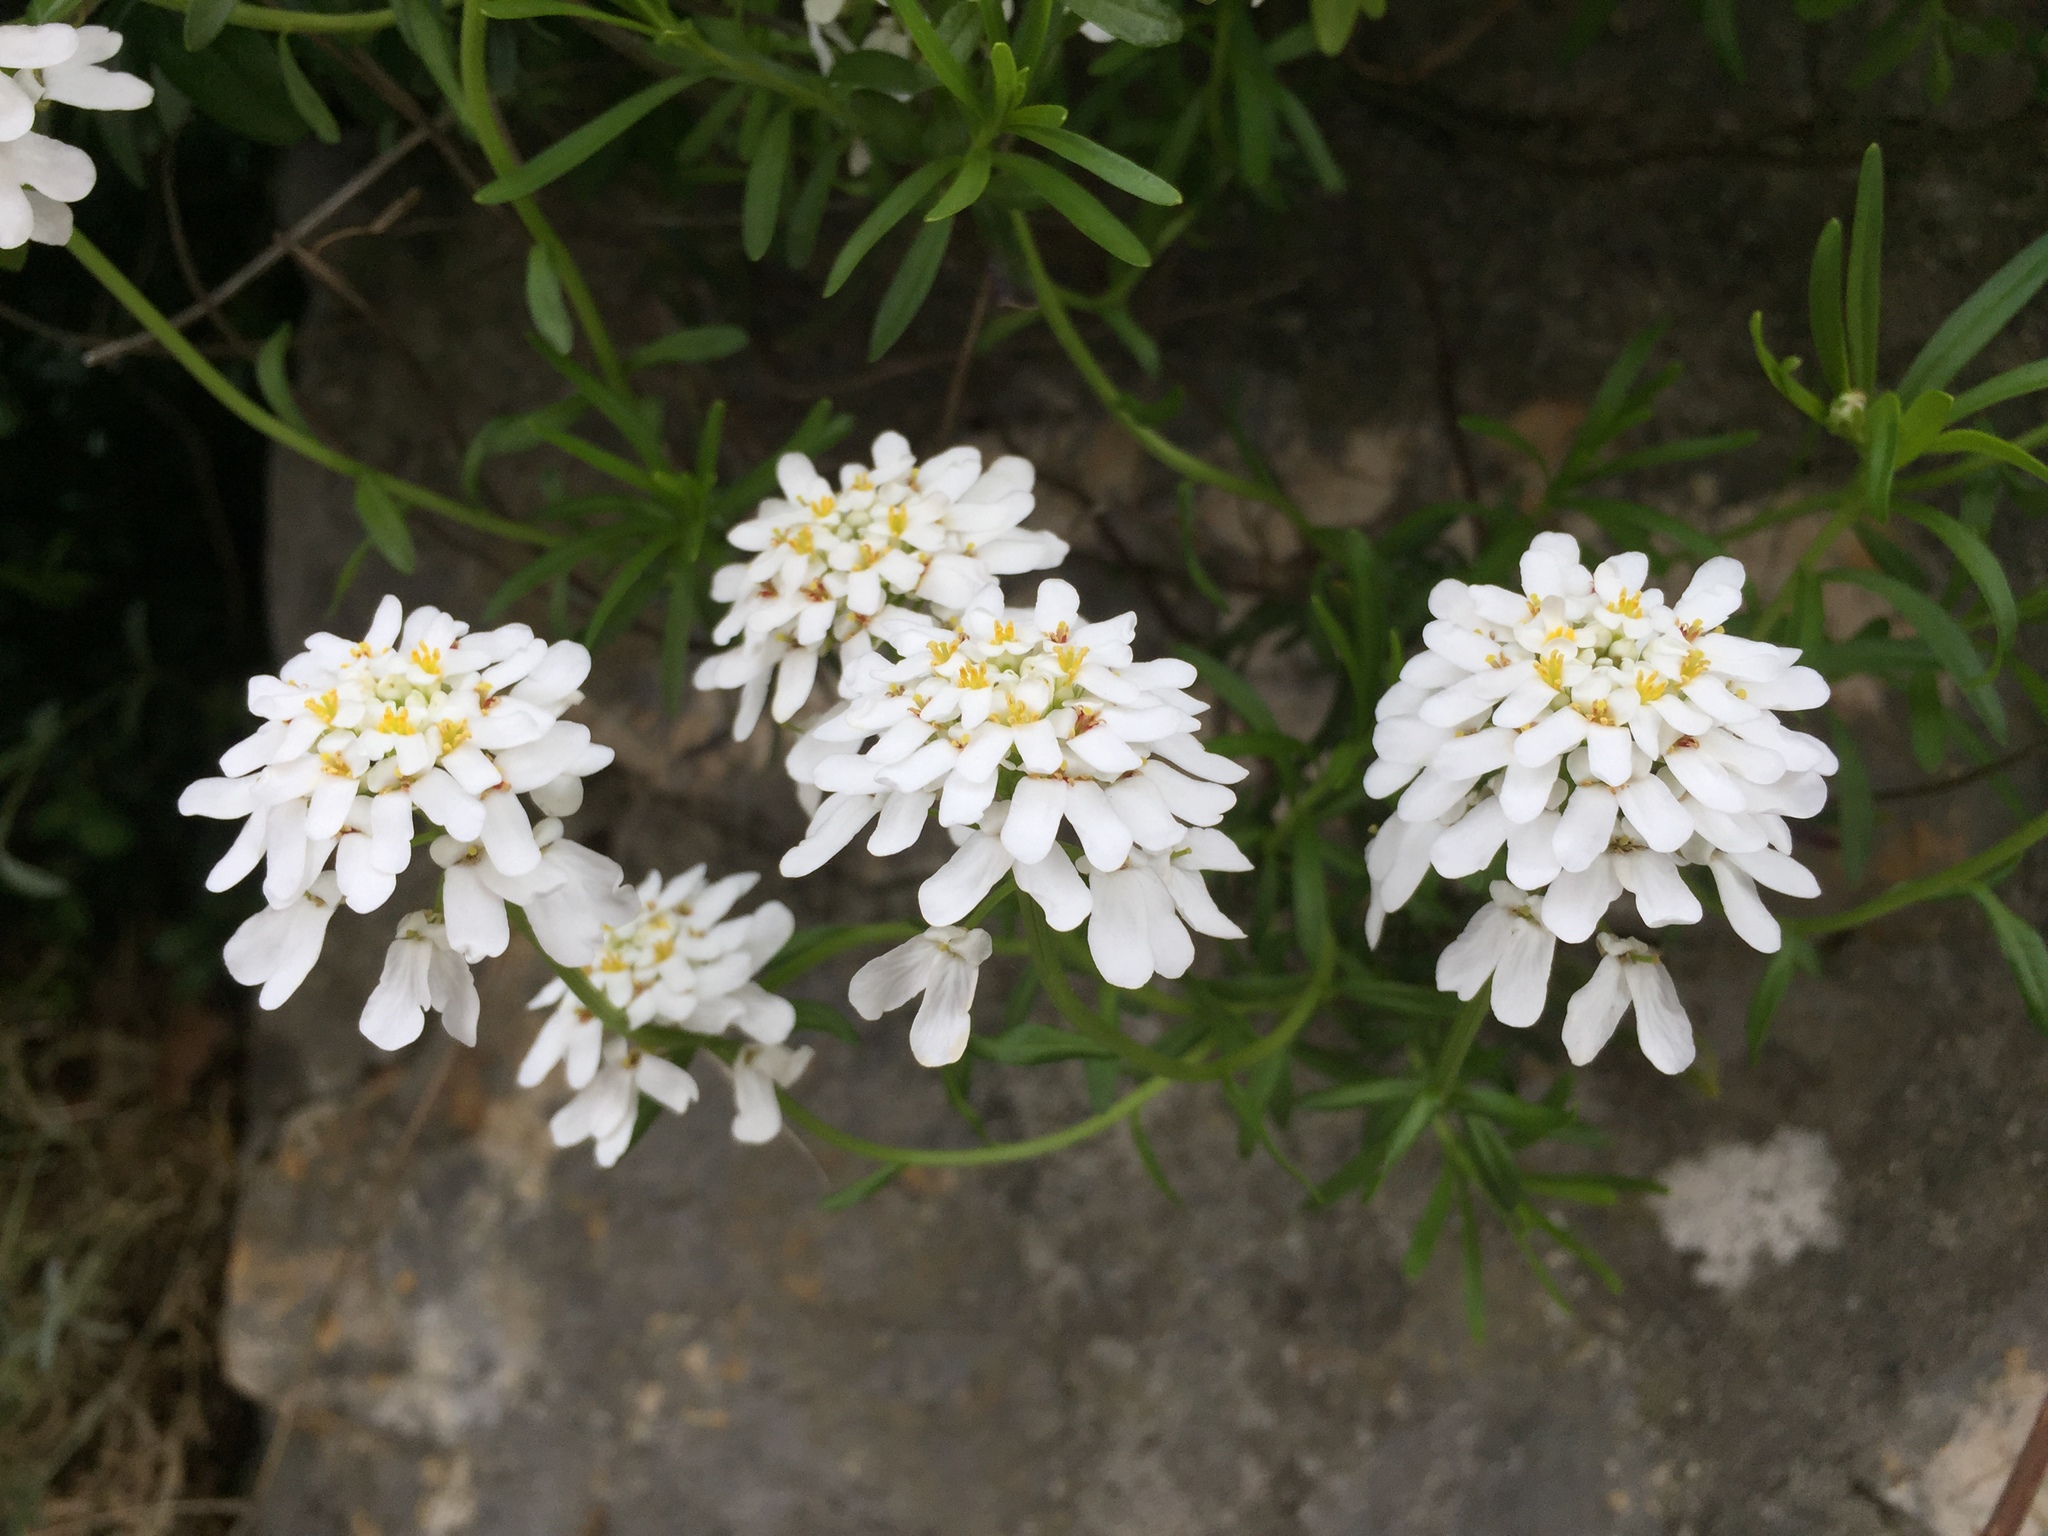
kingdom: Plantae
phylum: Tracheophyta
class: Magnoliopsida
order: Brassicales
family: Brassicaceae
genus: Iberis
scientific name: Iberis sempervirens
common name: Evergreen candytuft
